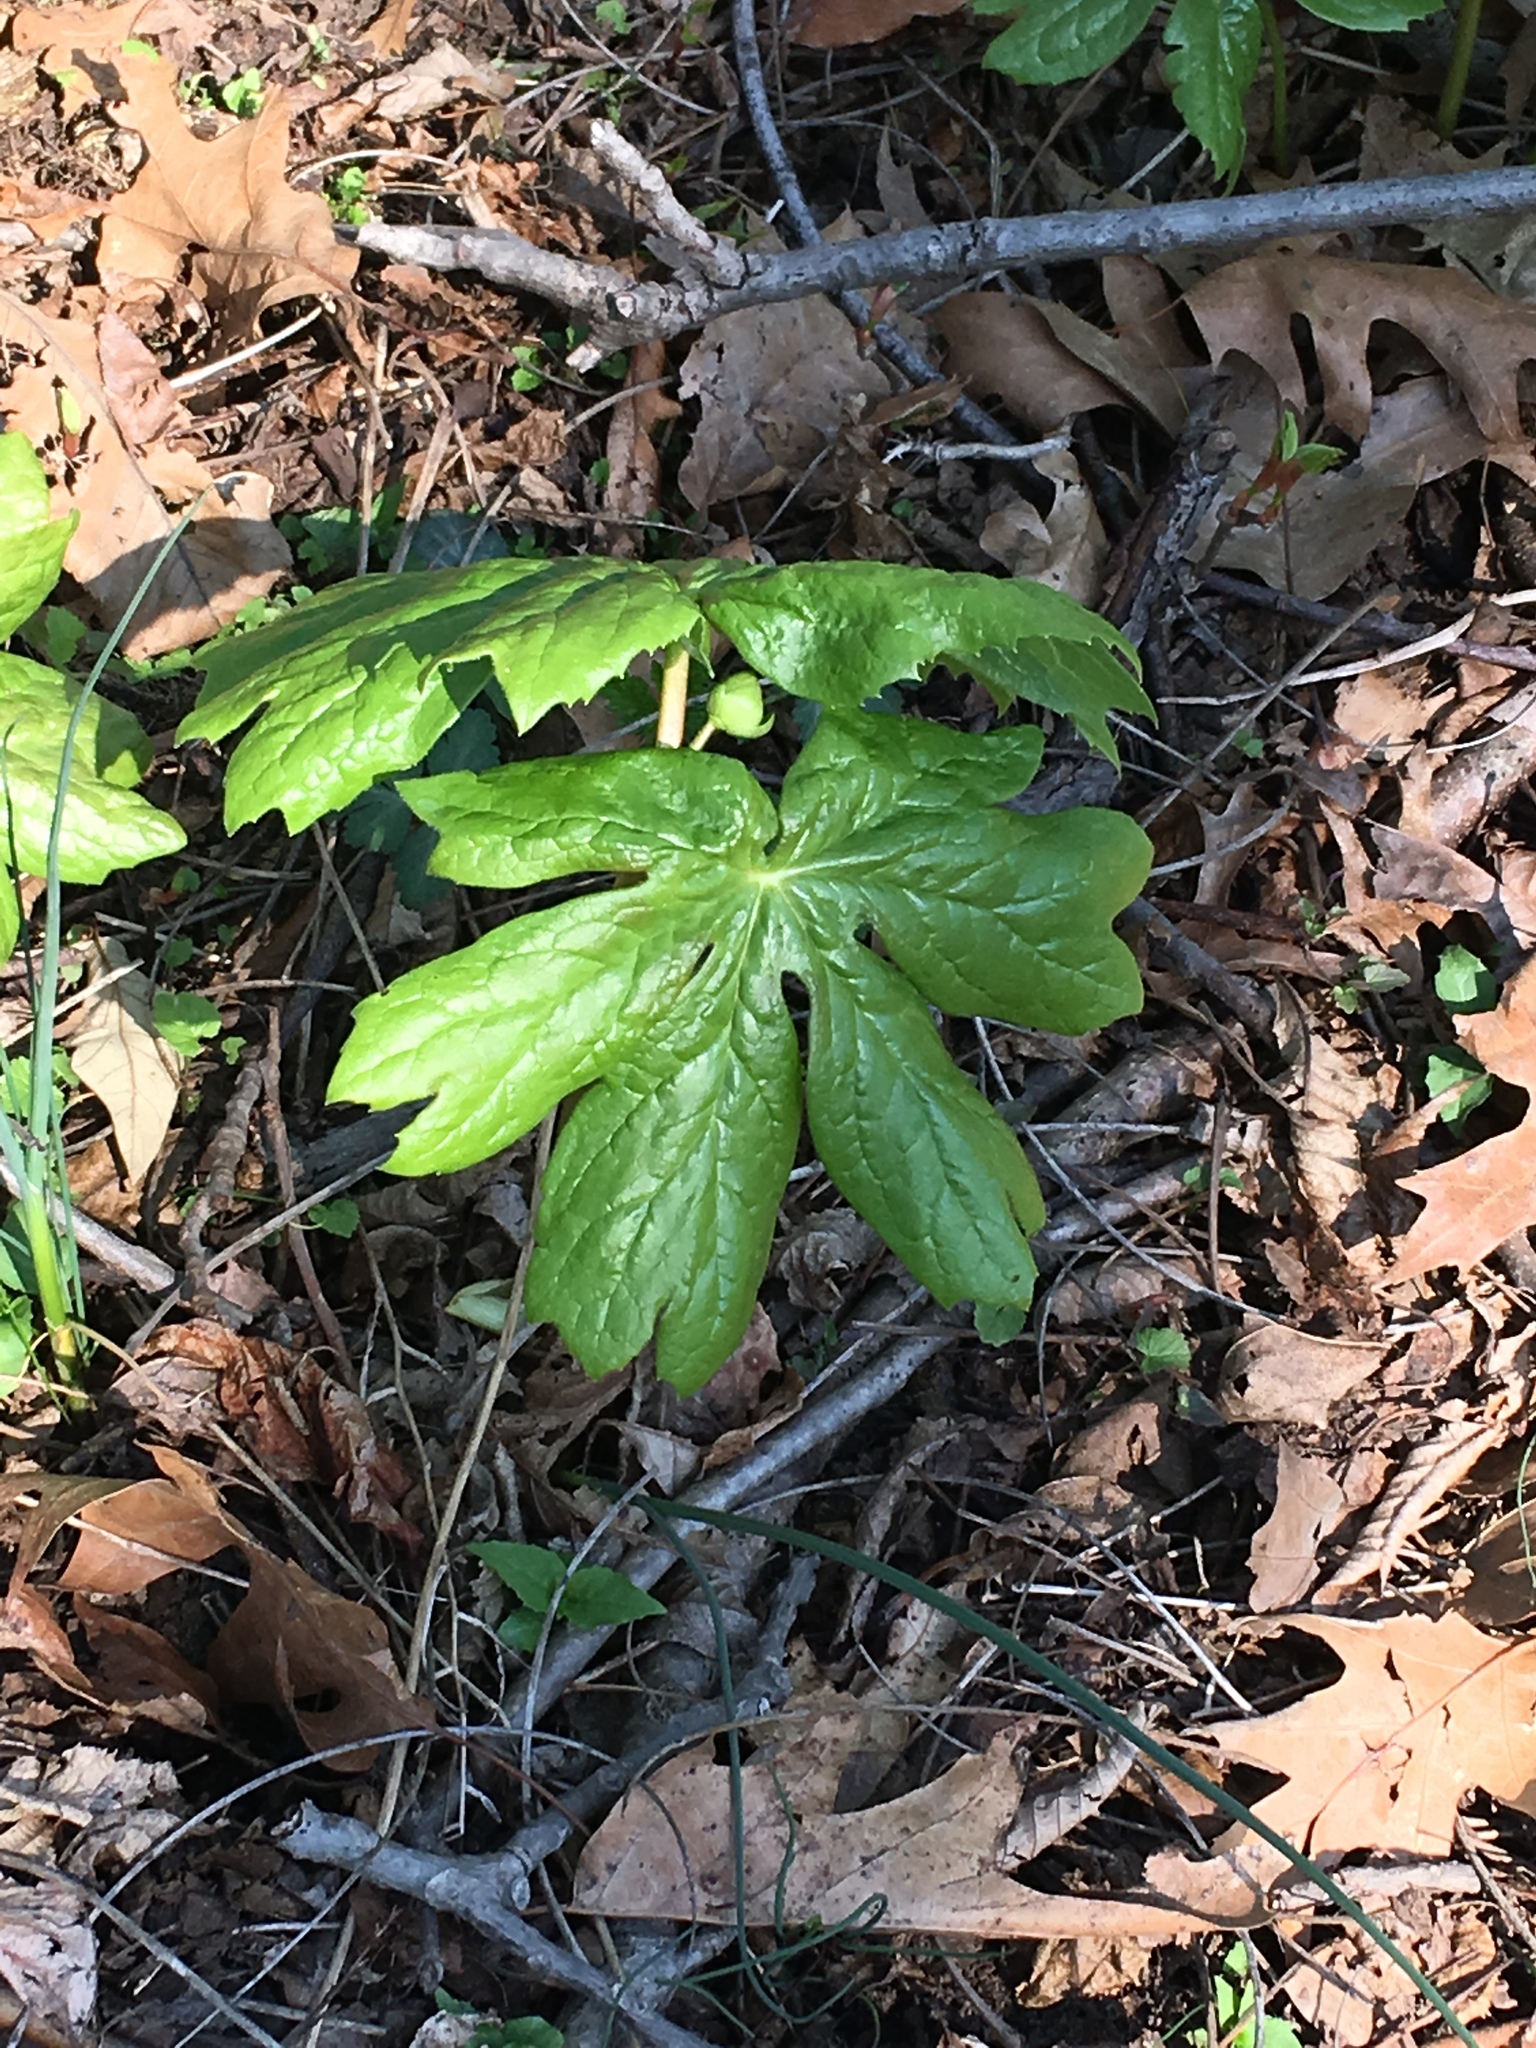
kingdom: Plantae
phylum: Tracheophyta
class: Magnoliopsida
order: Ranunculales
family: Berberidaceae
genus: Podophyllum
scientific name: Podophyllum peltatum
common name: Wild mandrake
